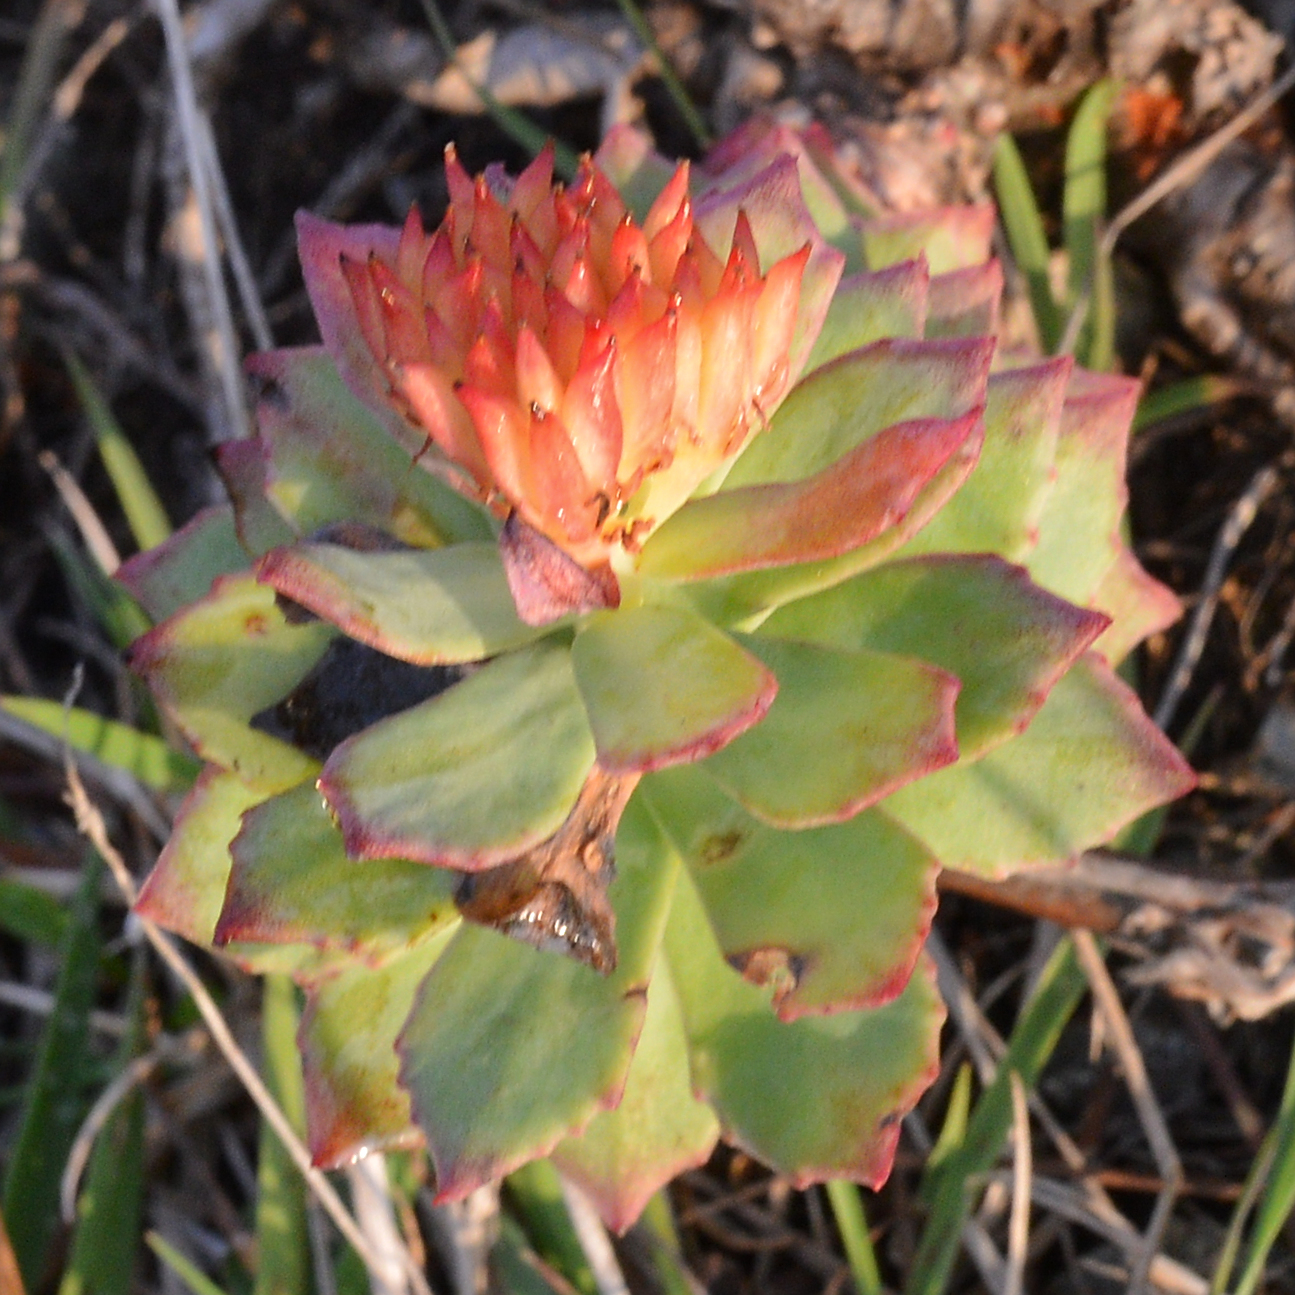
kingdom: Plantae
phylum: Tracheophyta
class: Magnoliopsida
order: Saxifragales
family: Crassulaceae
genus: Rhodiola
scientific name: Rhodiola rosea
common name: Roseroot
